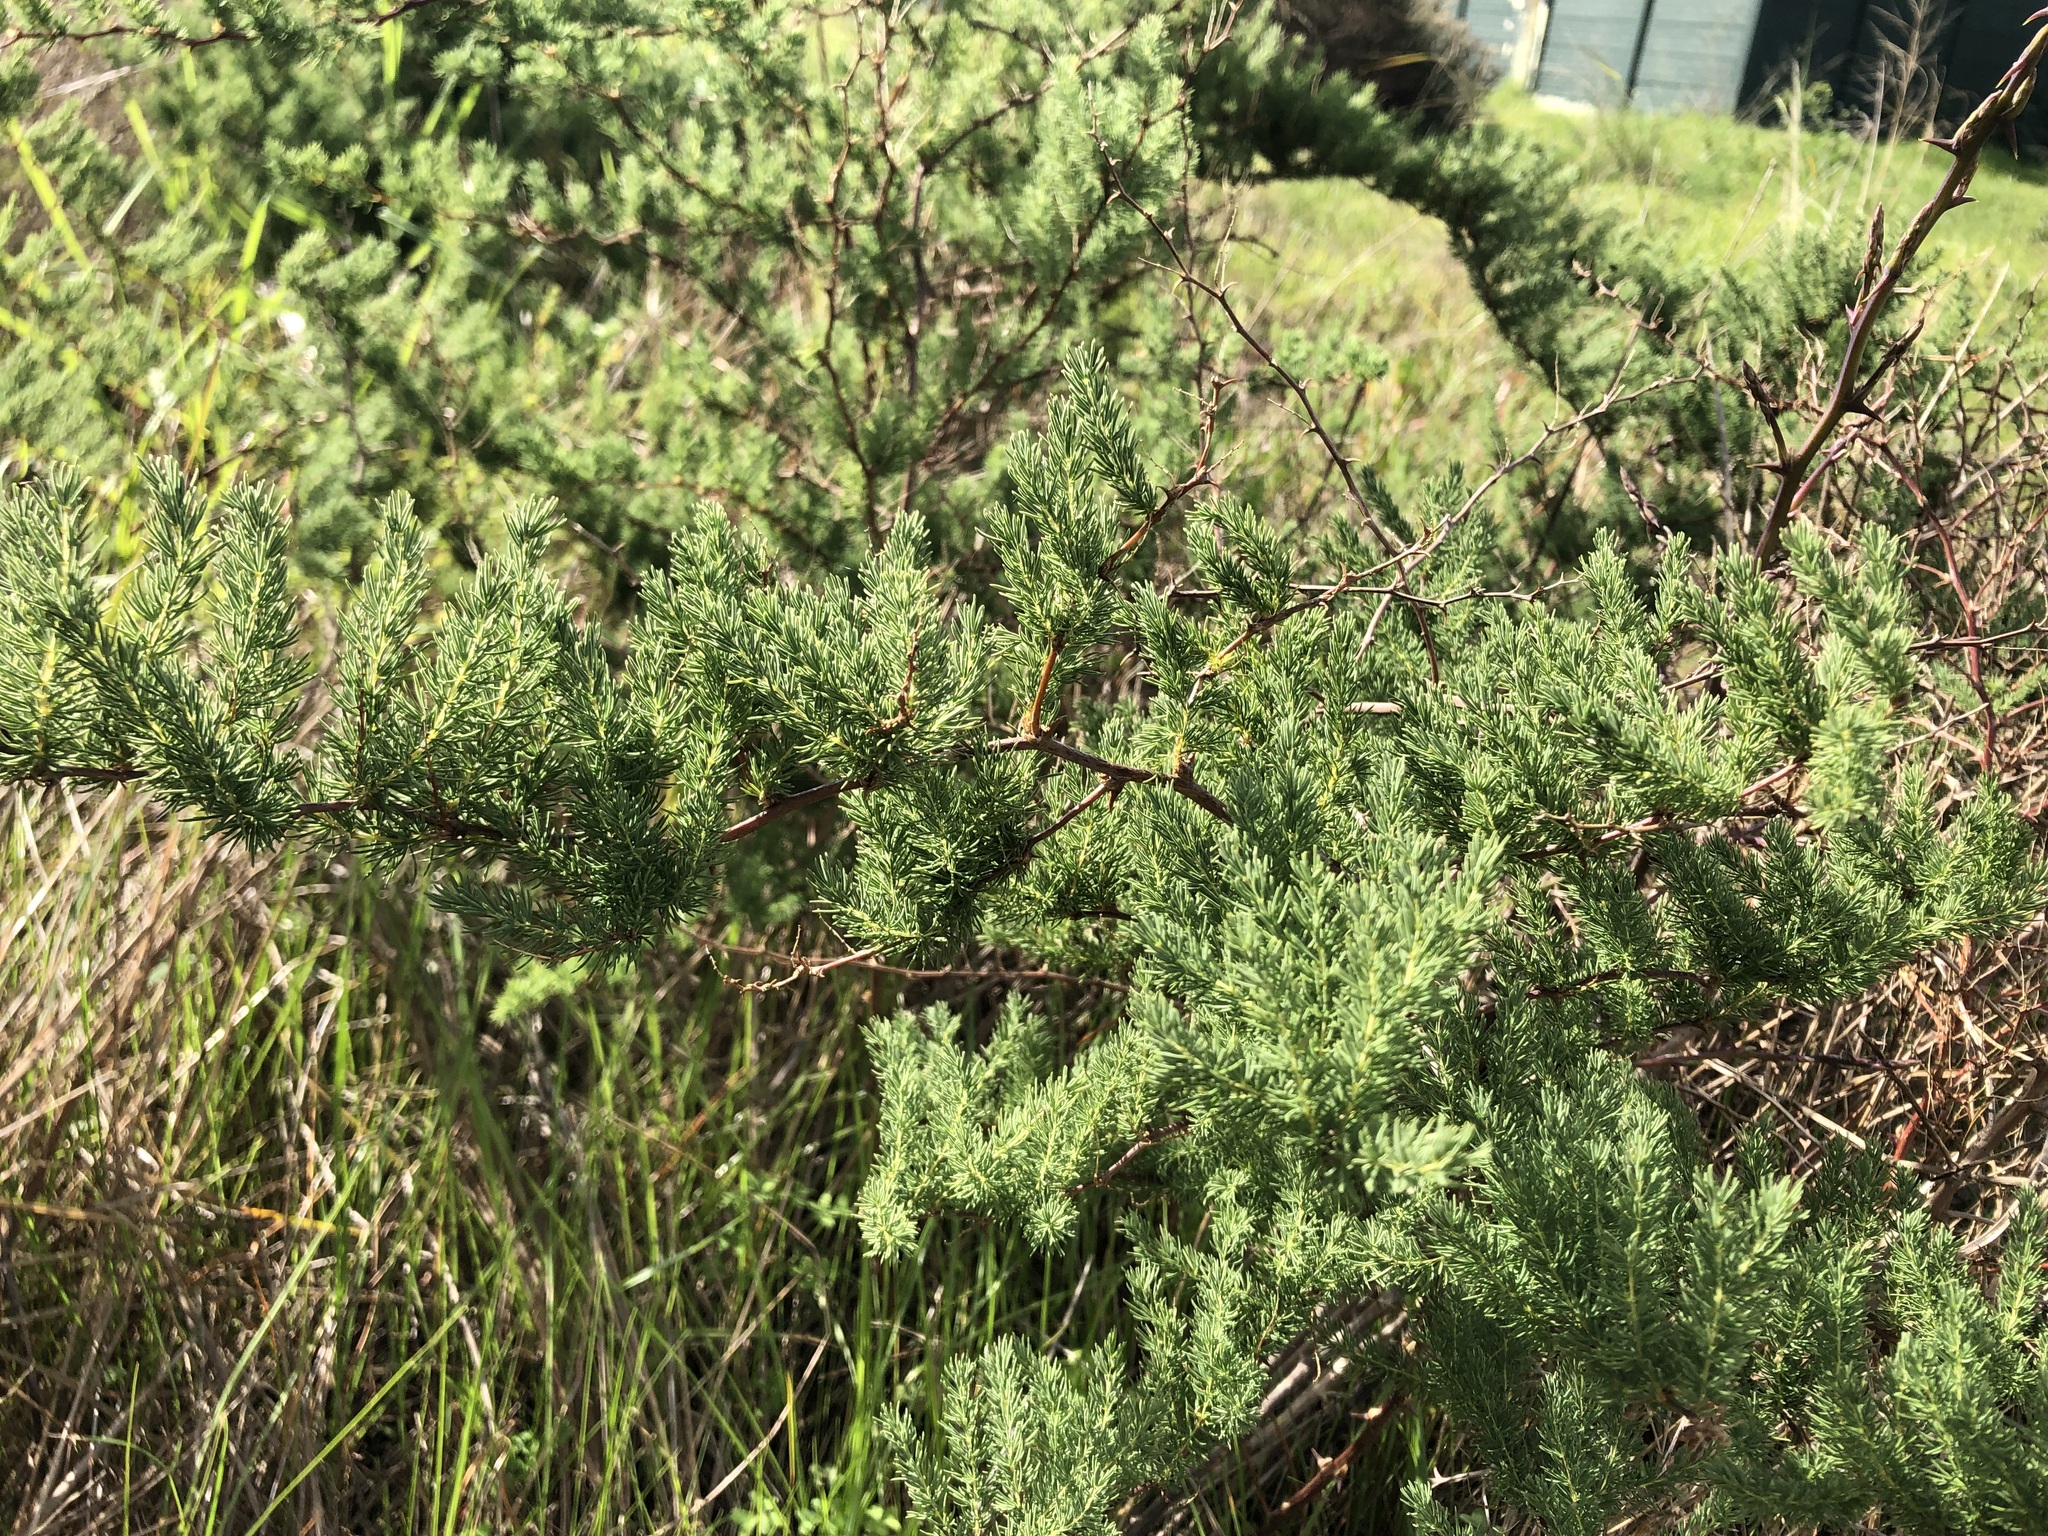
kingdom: Plantae
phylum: Tracheophyta
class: Liliopsida
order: Asparagales
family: Asparagaceae
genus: Asparagus
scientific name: Asparagus rubicundus
